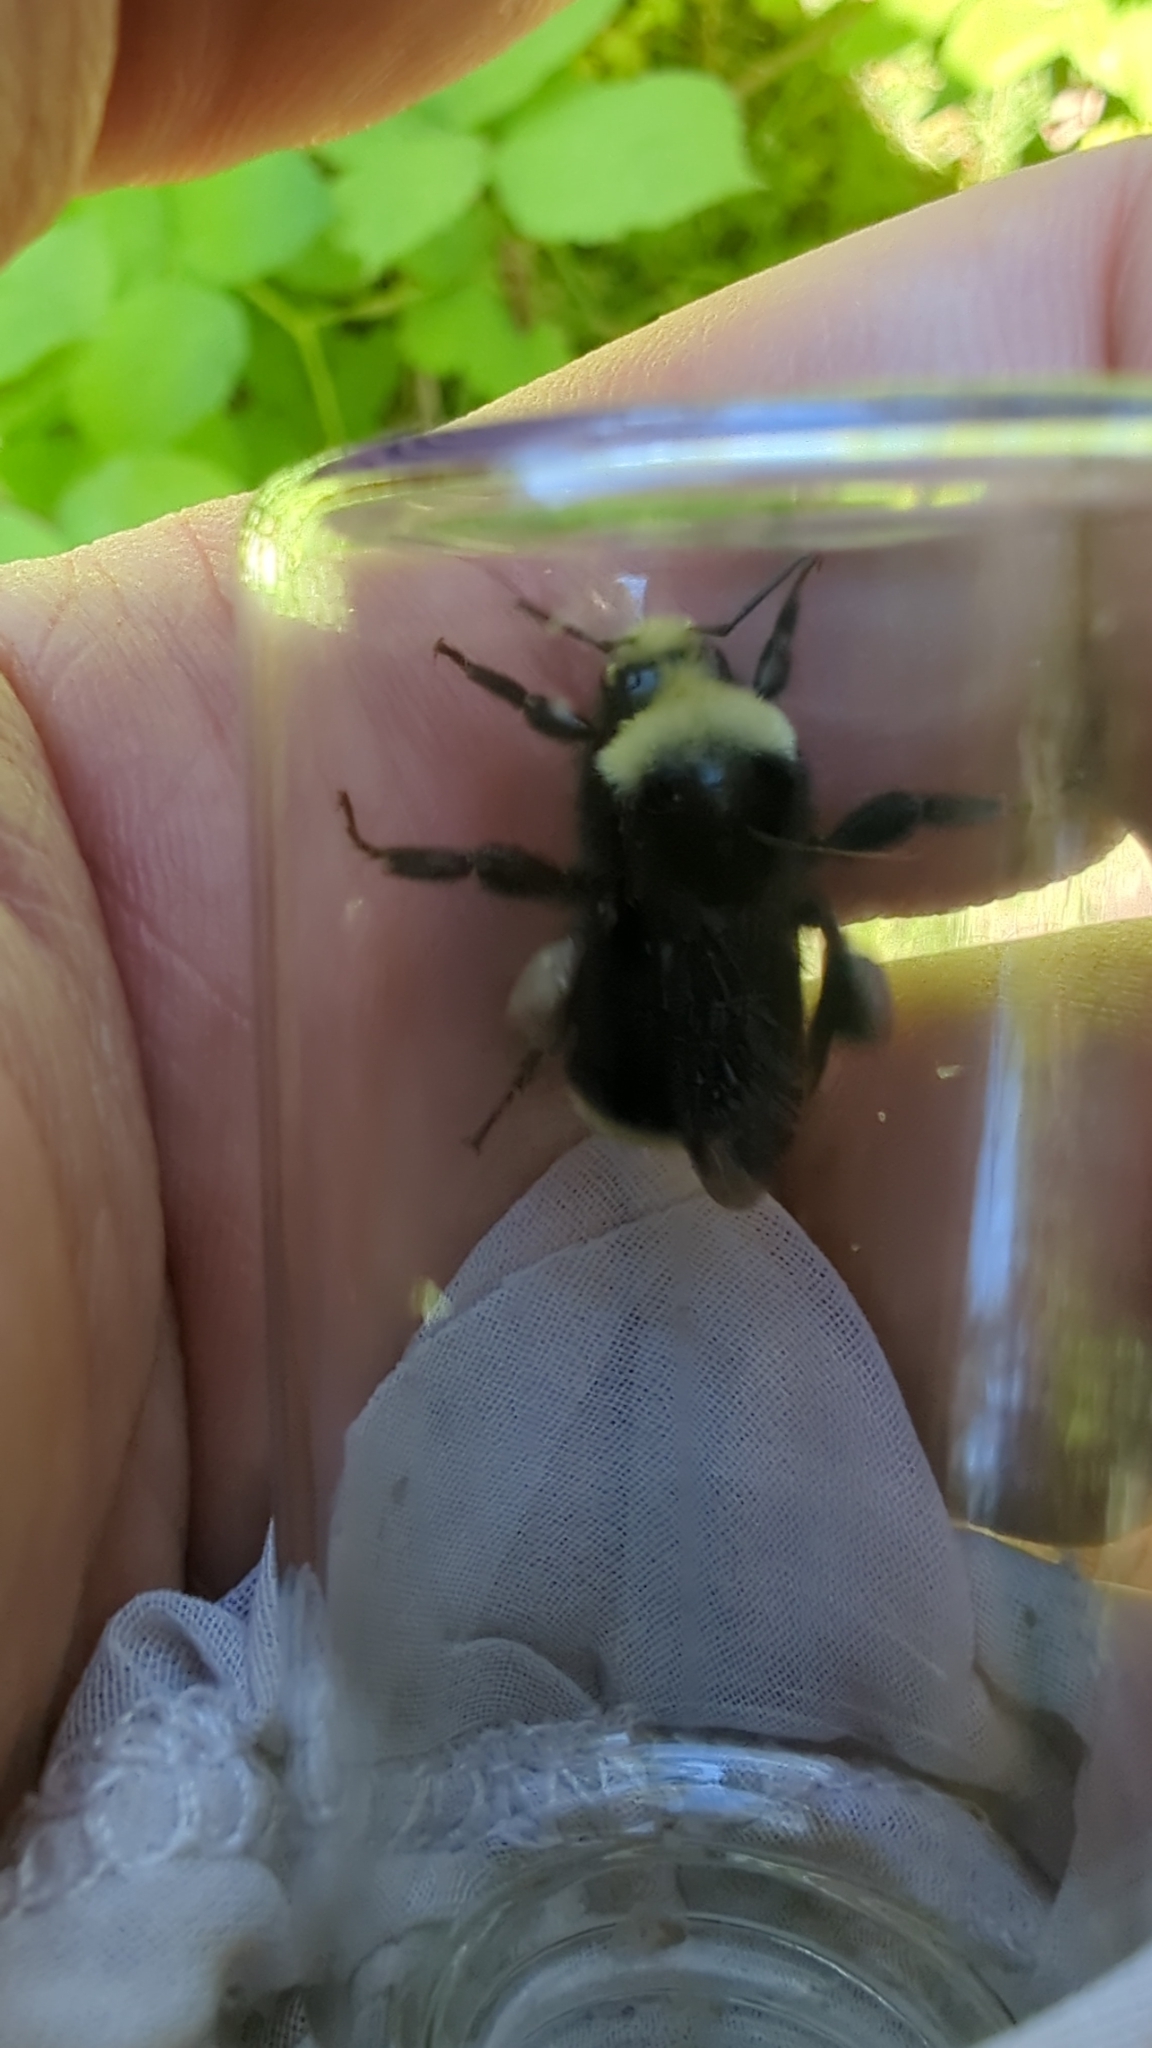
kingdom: Animalia
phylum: Arthropoda
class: Insecta
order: Hymenoptera
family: Apidae
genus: Bombus
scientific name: Bombus vosnesenskii
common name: Vosnesensky bumble bee
